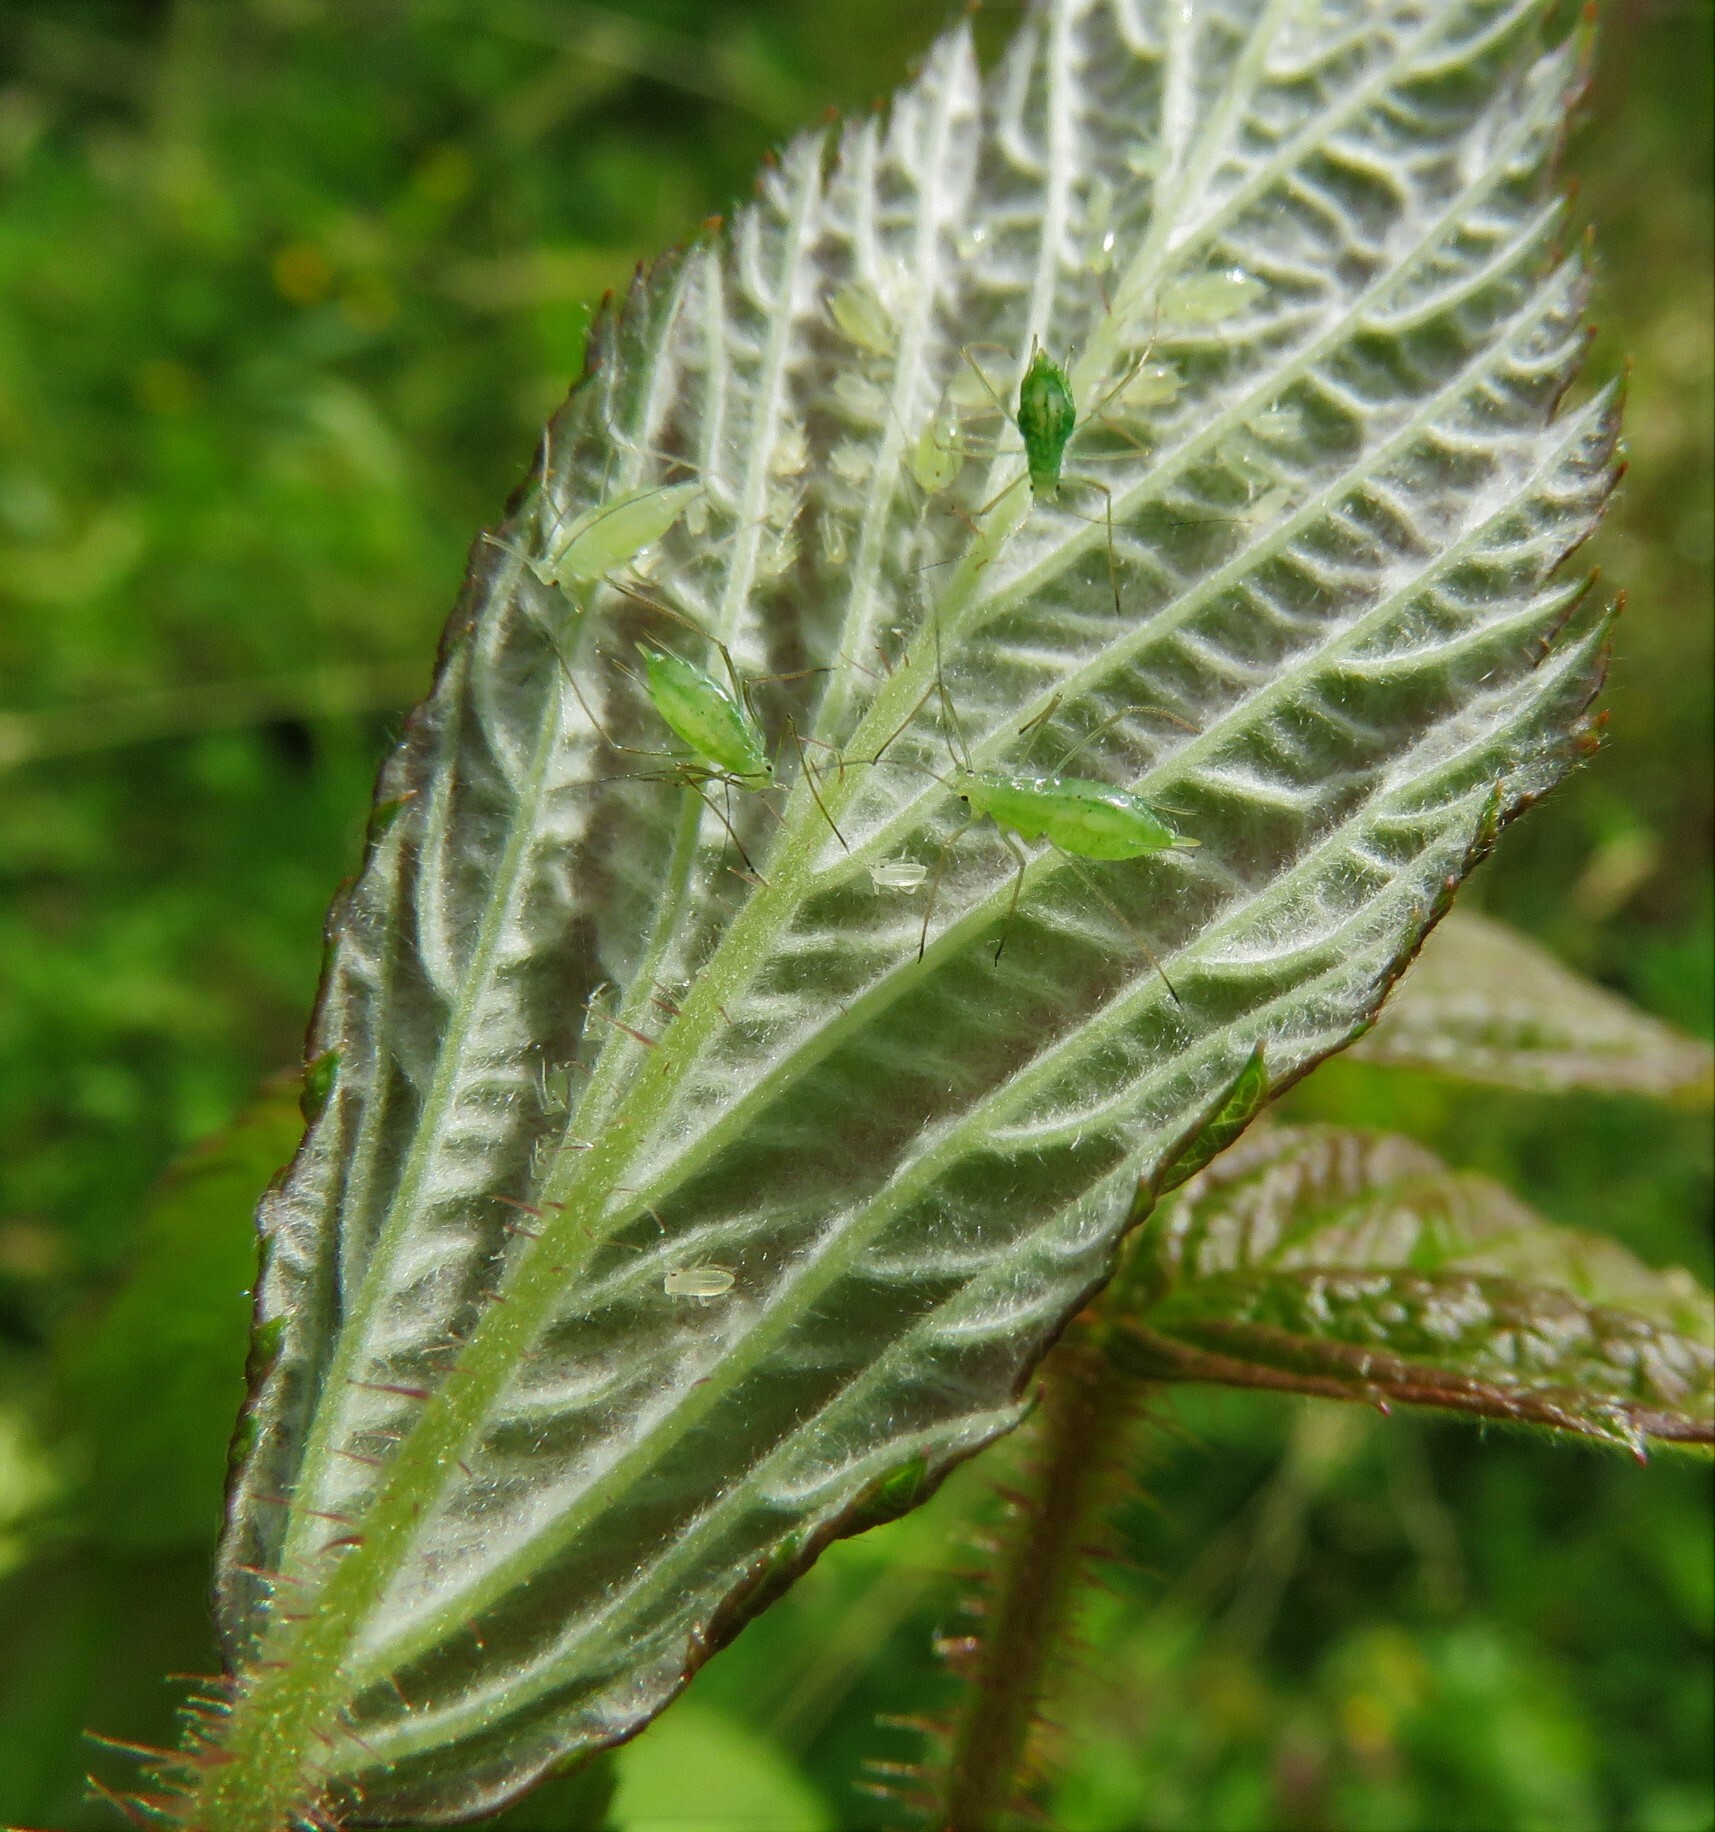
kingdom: Animalia
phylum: Arthropoda
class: Insecta
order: Hemiptera
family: Aphididae
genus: Amphorophora
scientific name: Amphorophora agathonica
